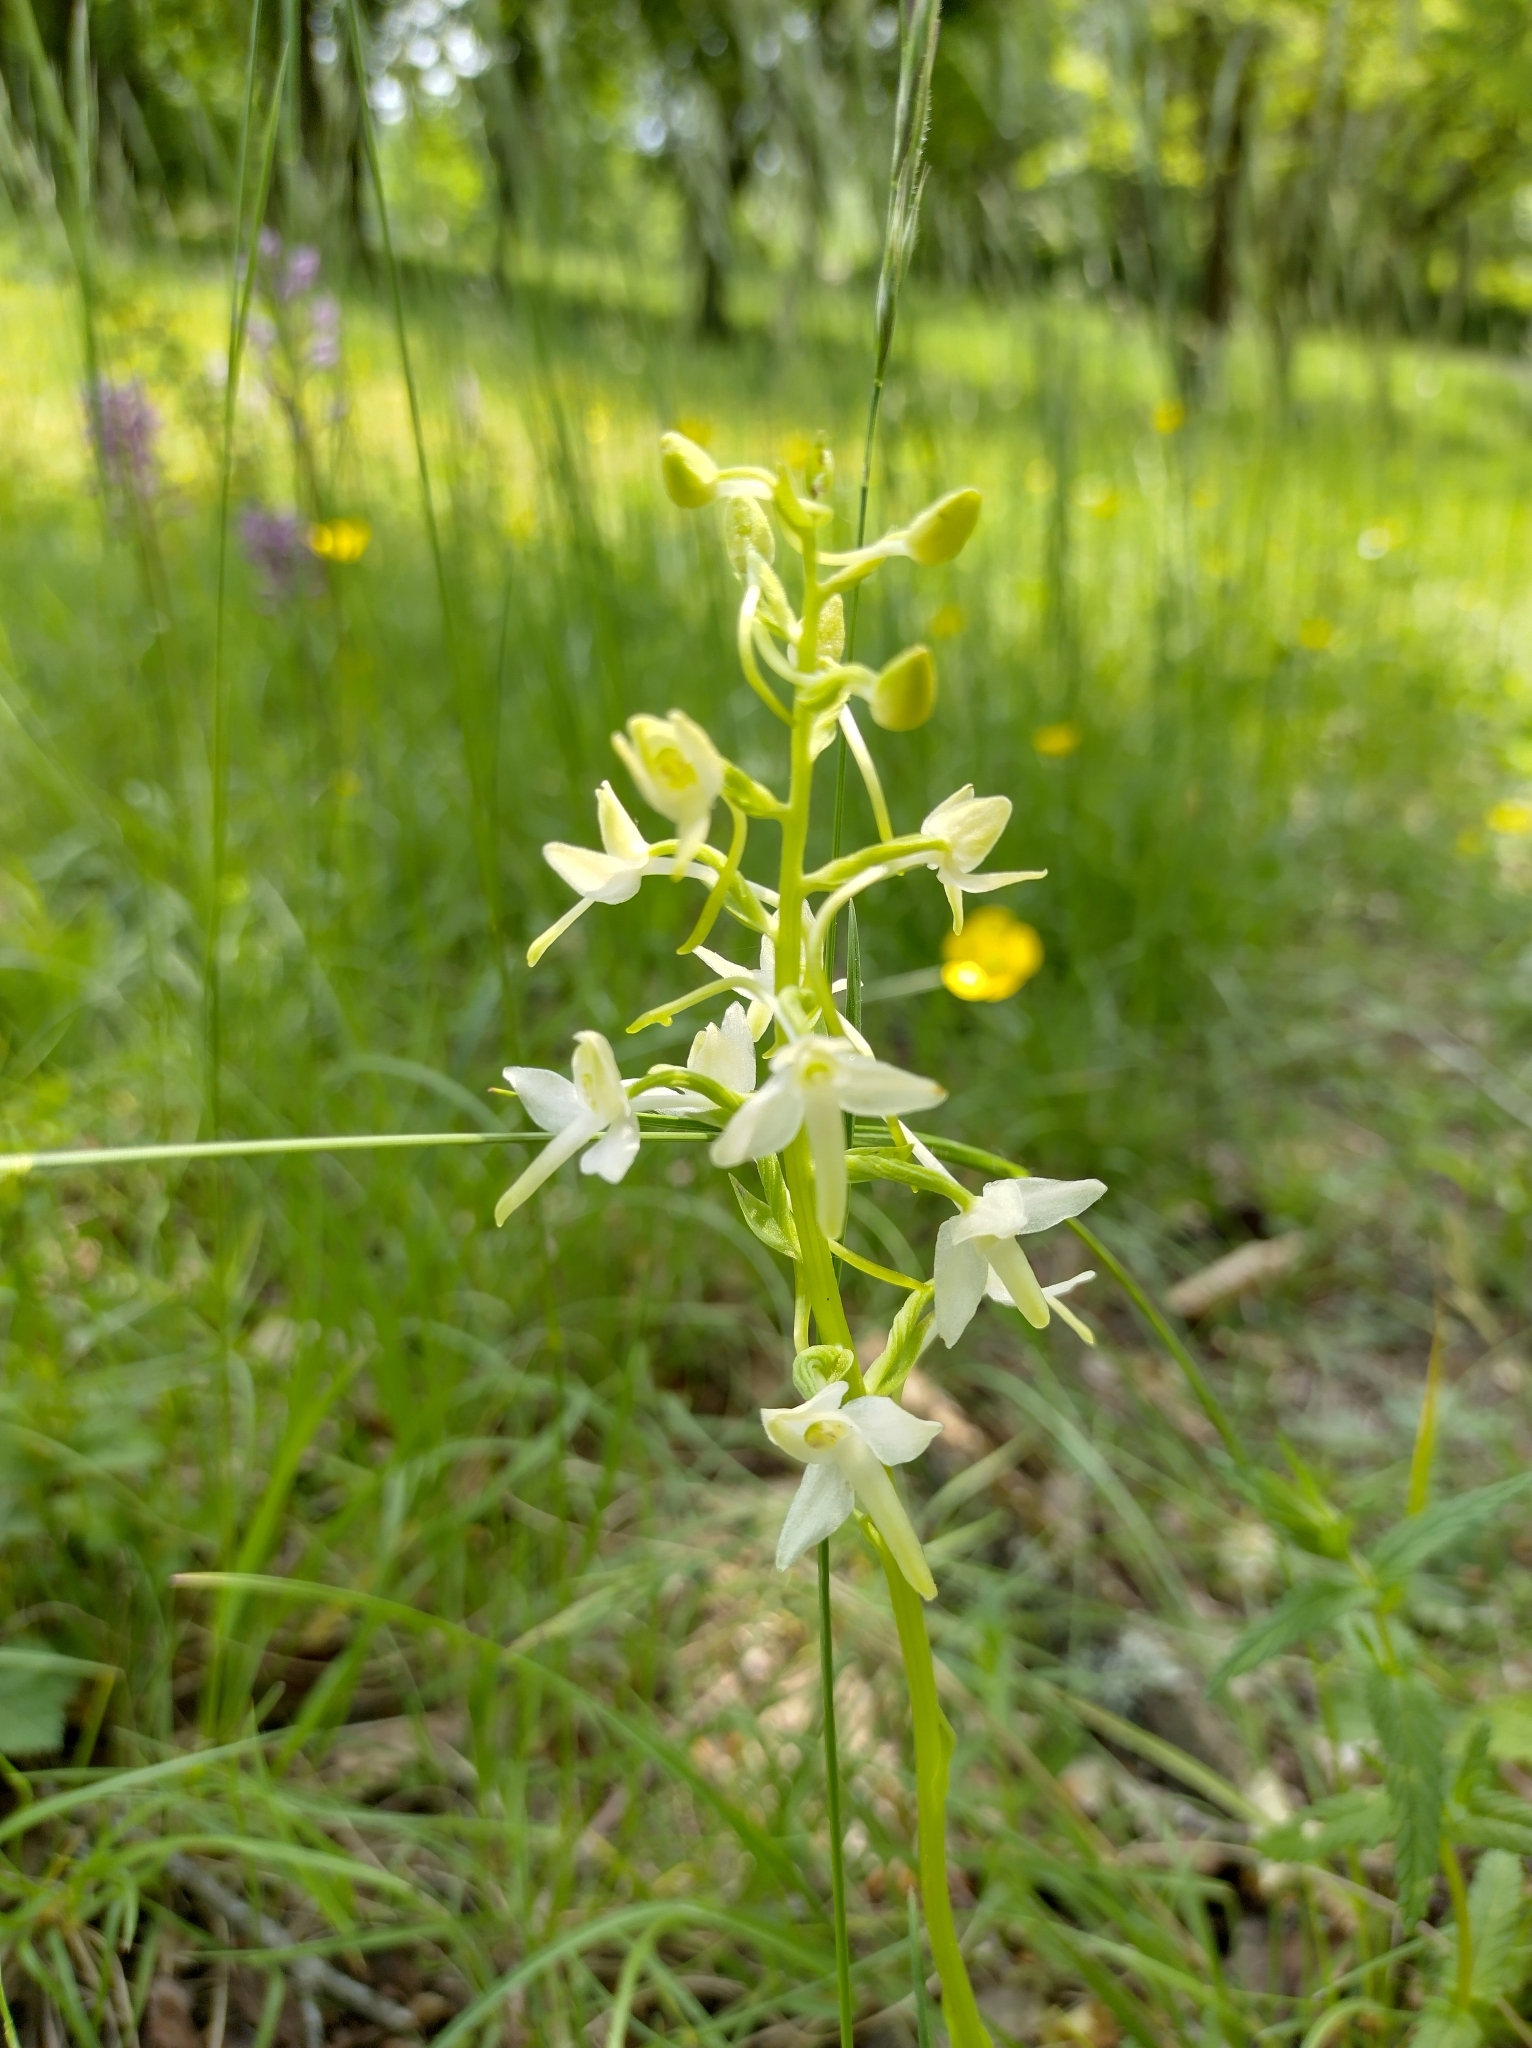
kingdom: Plantae
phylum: Tracheophyta
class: Liliopsida
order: Asparagales
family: Orchidaceae
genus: Platanthera
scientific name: Platanthera bifolia
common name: Lesser butterfly-orchid
